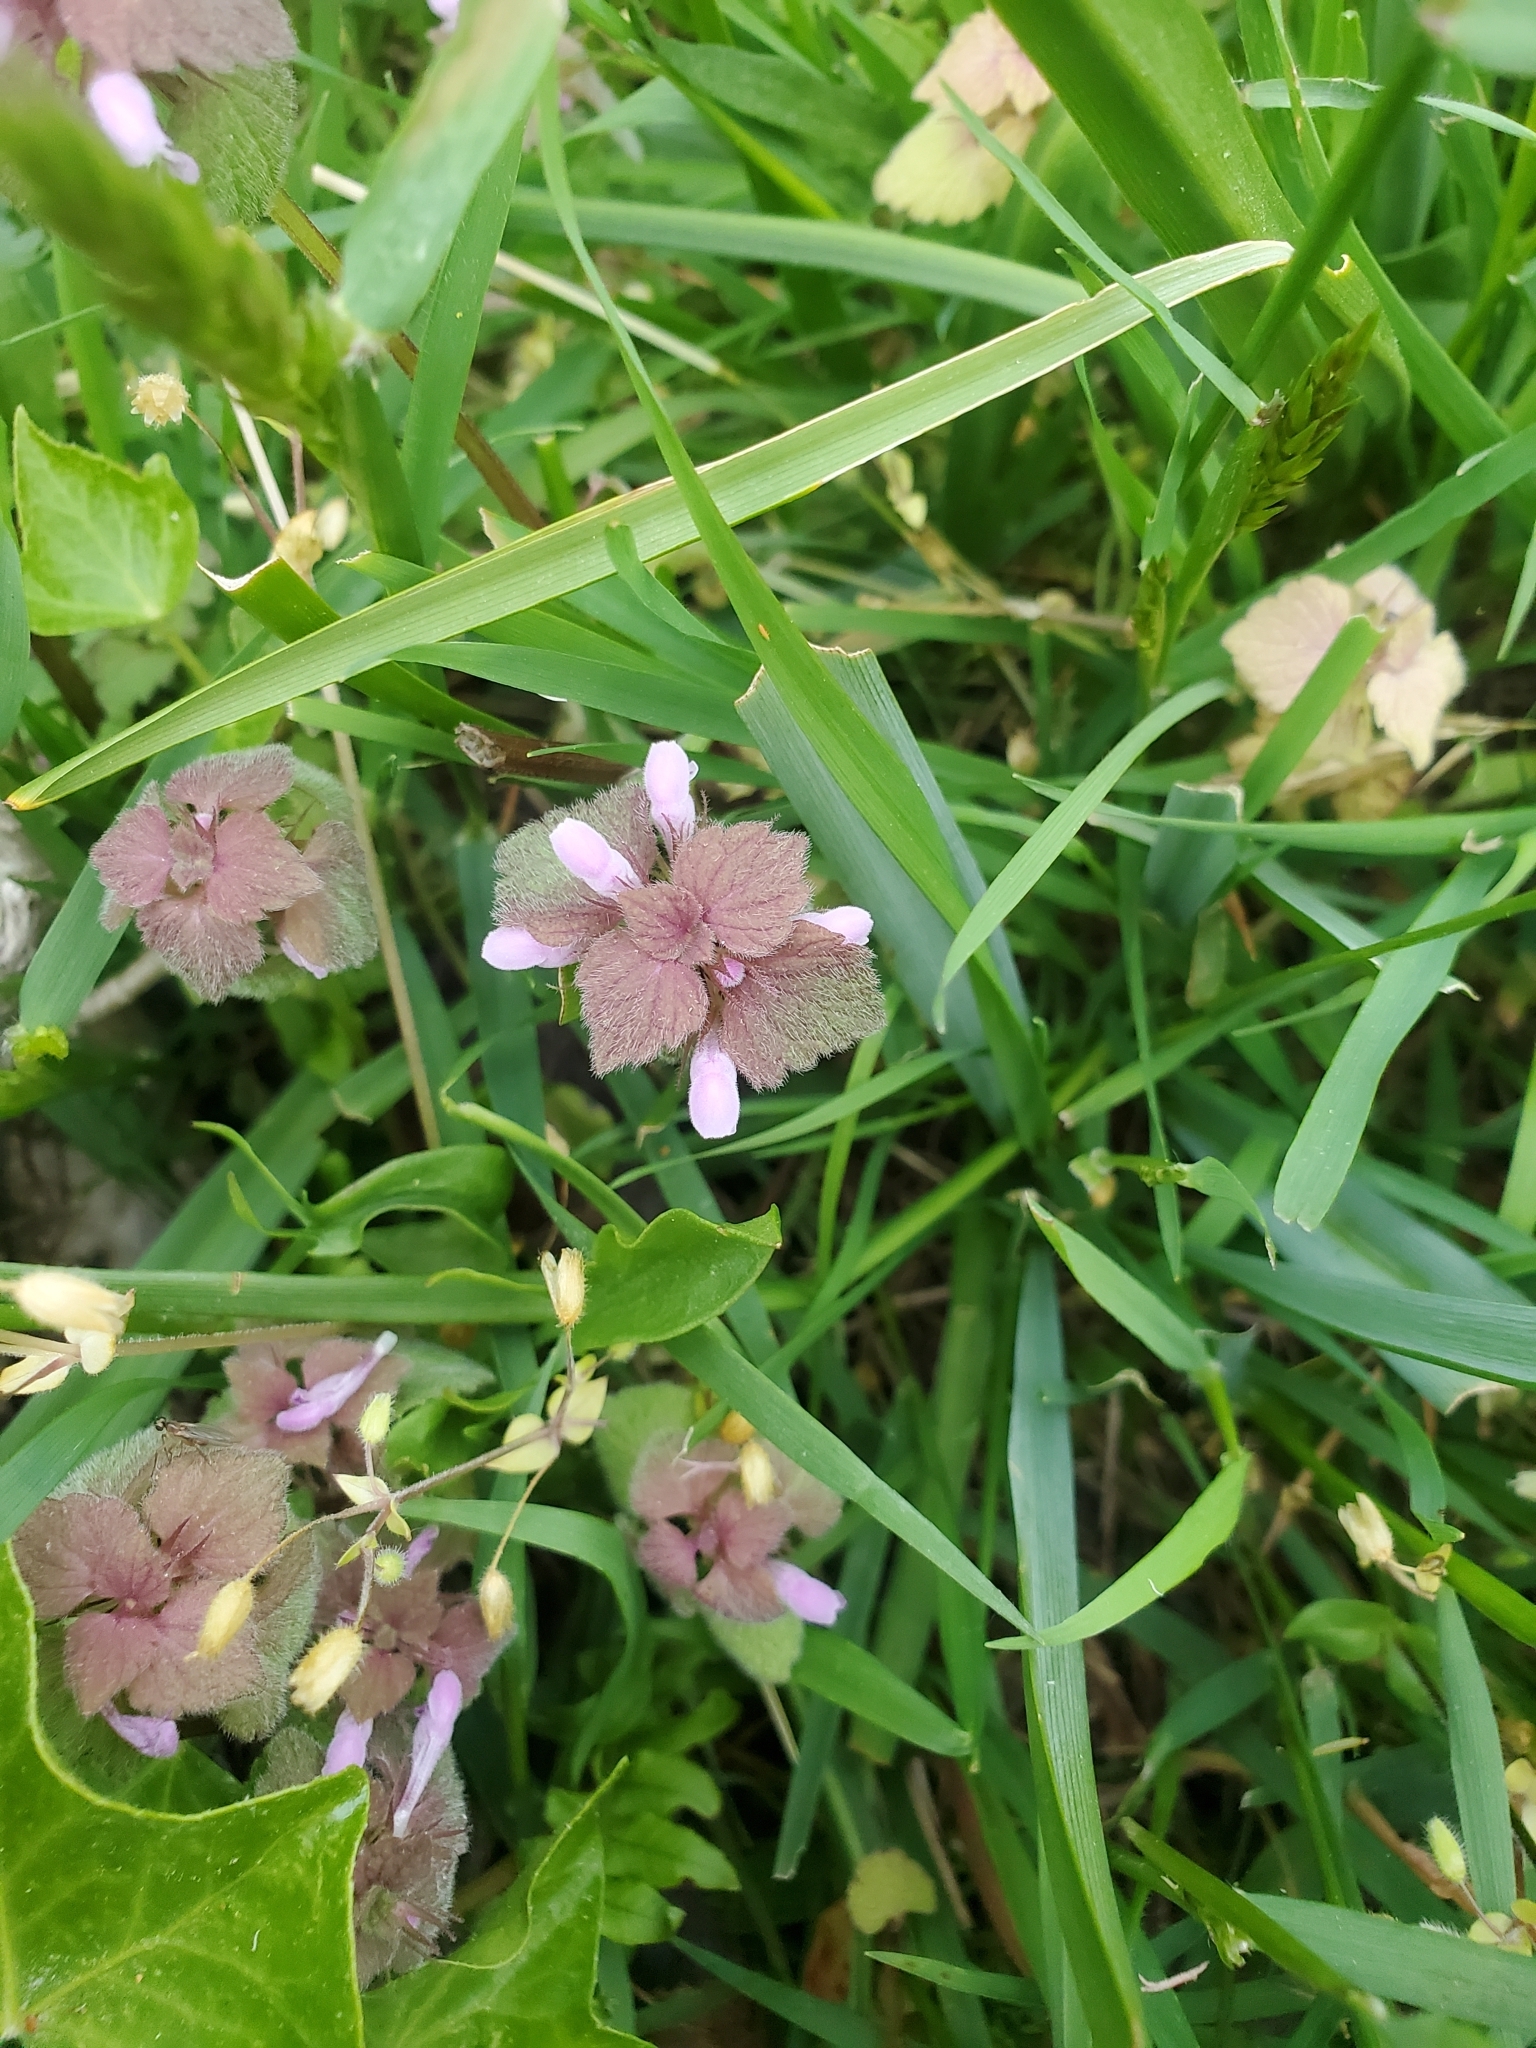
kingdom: Plantae
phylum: Tracheophyta
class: Magnoliopsida
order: Lamiales
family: Lamiaceae
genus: Lamium
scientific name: Lamium purpureum
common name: Red dead-nettle
